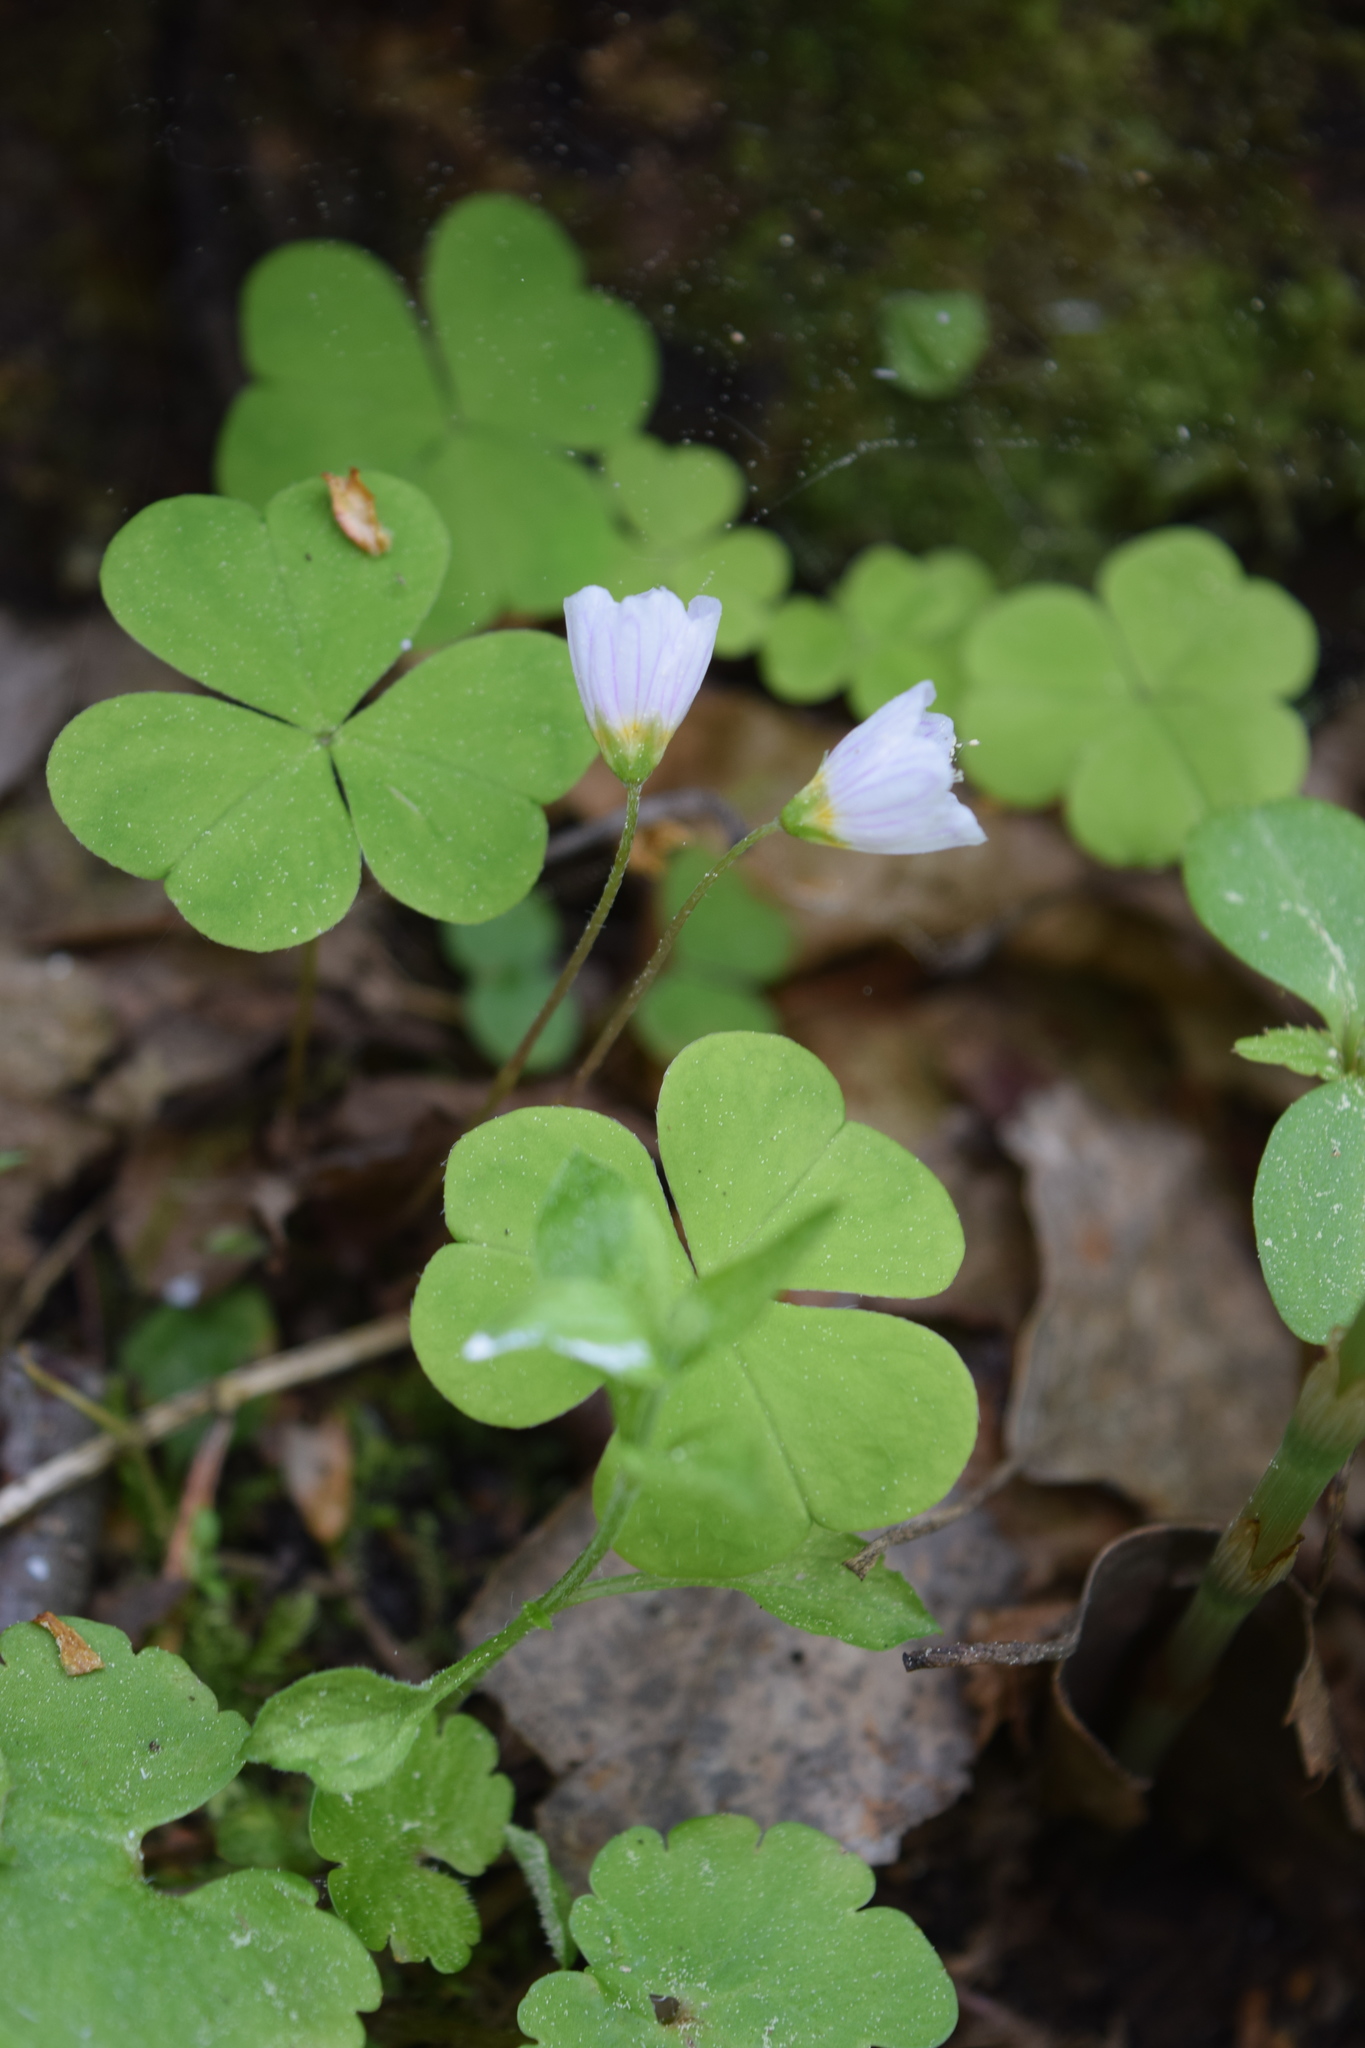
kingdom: Plantae
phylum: Tracheophyta
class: Magnoliopsida
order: Oxalidales
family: Oxalidaceae
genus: Oxalis
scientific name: Oxalis acetosella
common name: Wood-sorrel
